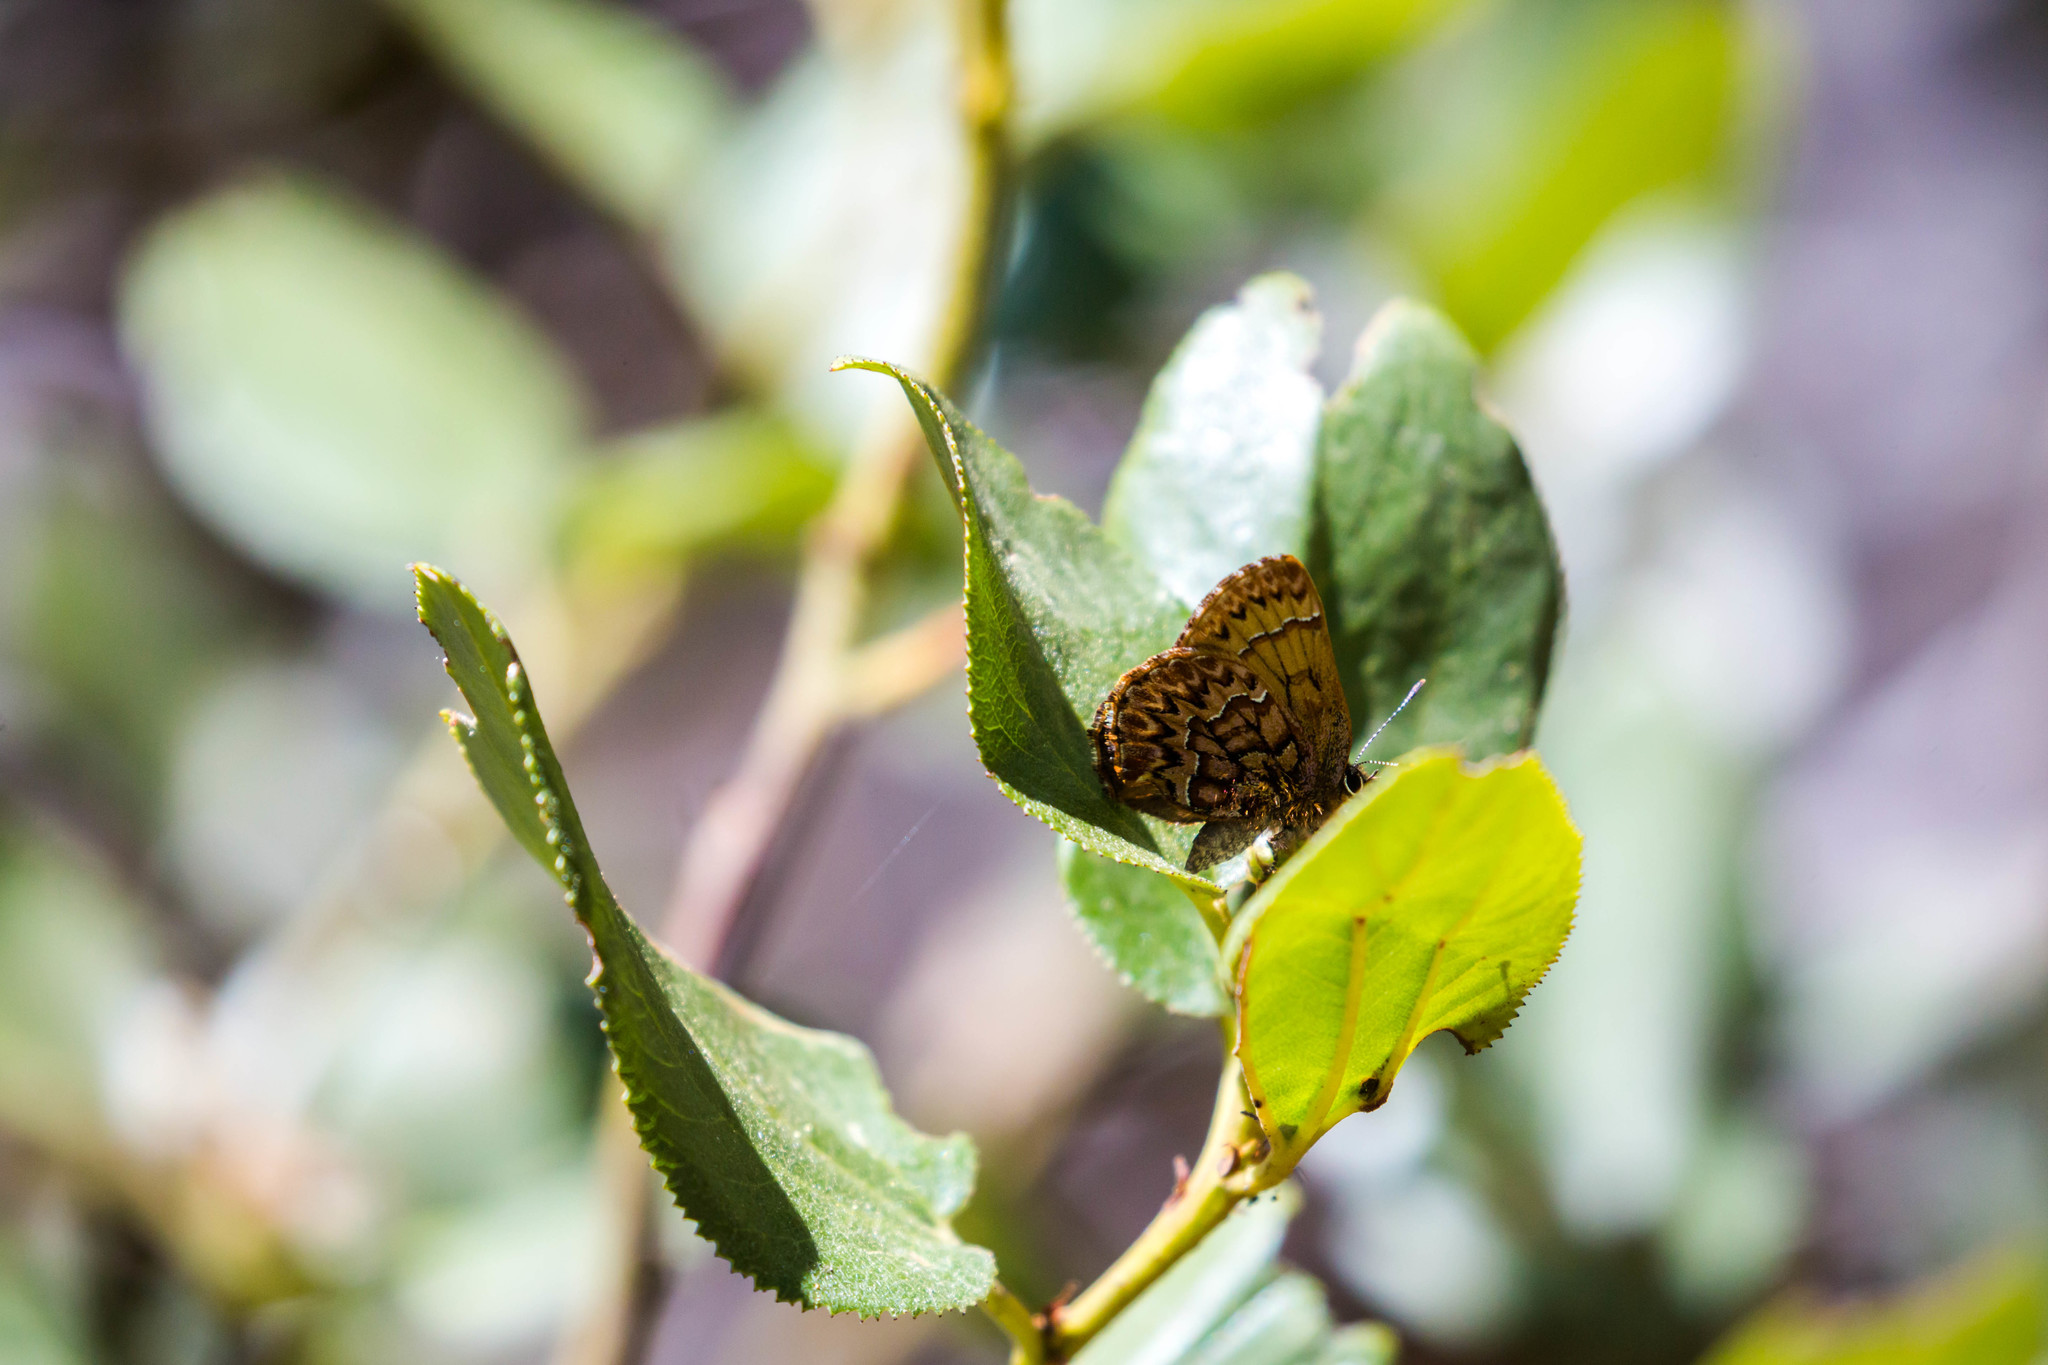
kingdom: Animalia
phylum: Arthropoda
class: Insecta
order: Lepidoptera
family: Lycaenidae
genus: Incisalia
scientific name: Incisalia eryphon
